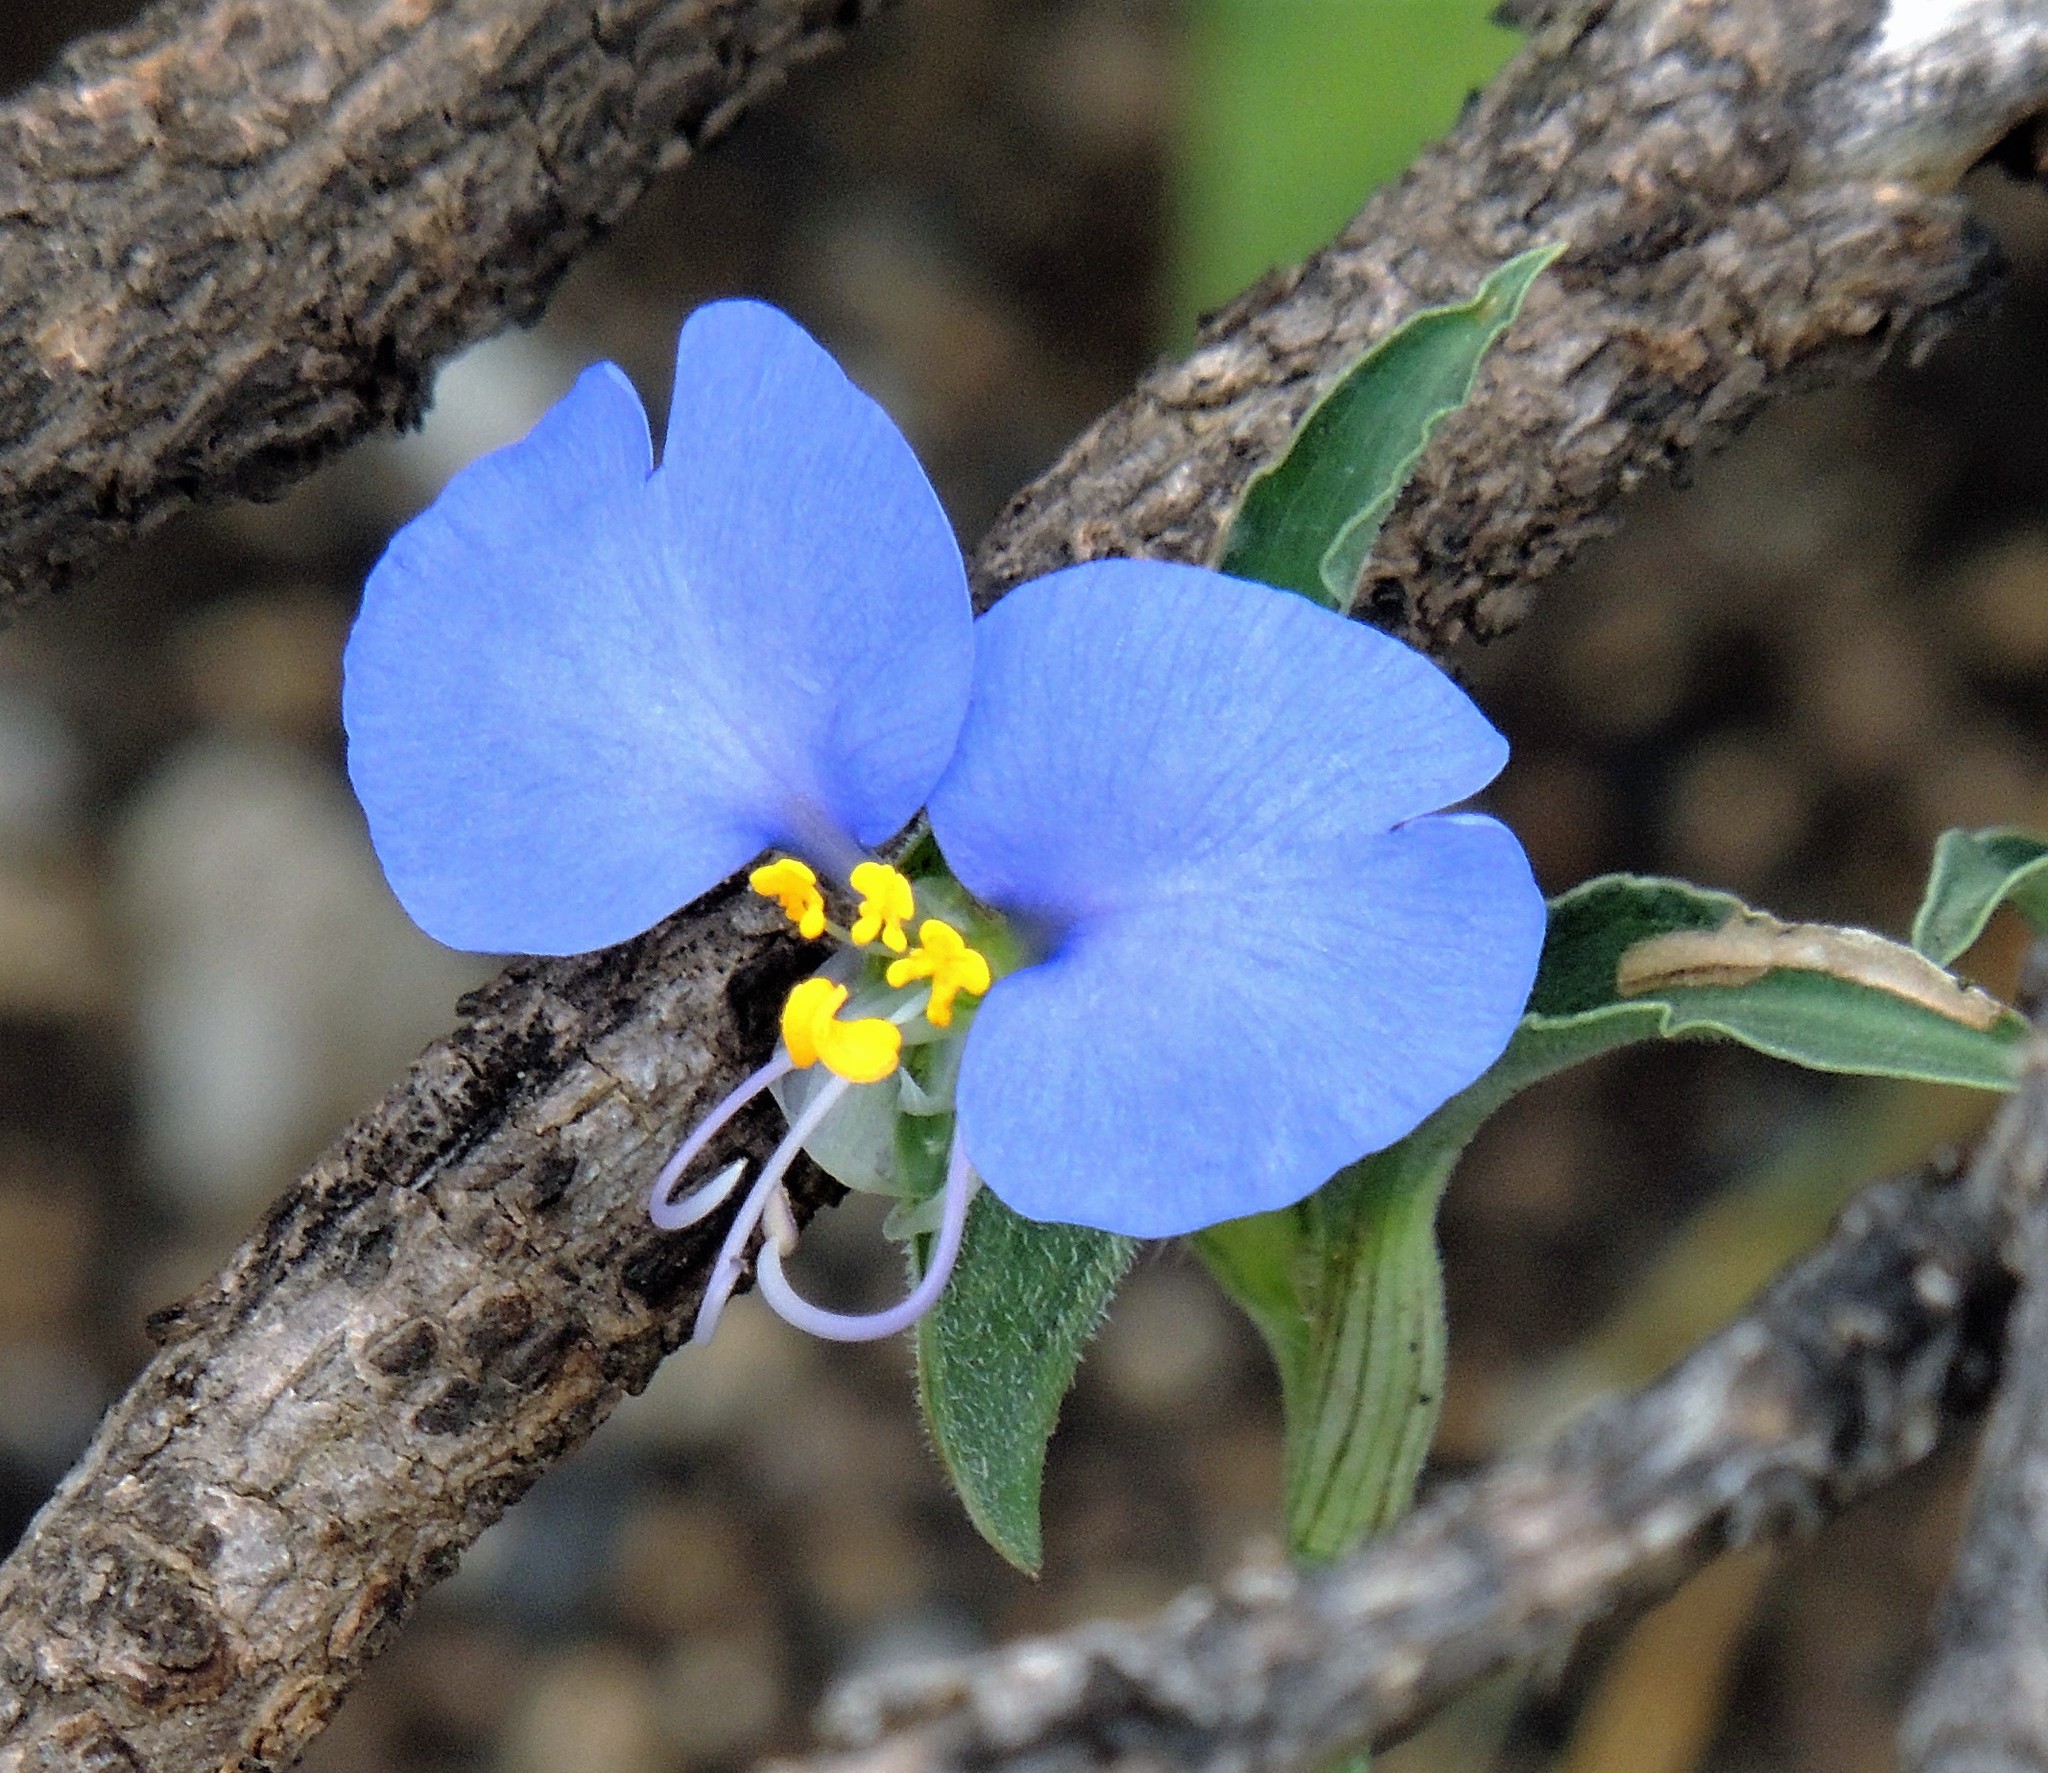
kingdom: Plantae
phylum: Tracheophyta
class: Liliopsida
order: Commelinales
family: Commelinaceae
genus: Commelina
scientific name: Commelina erecta
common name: Blousel blommetjie
